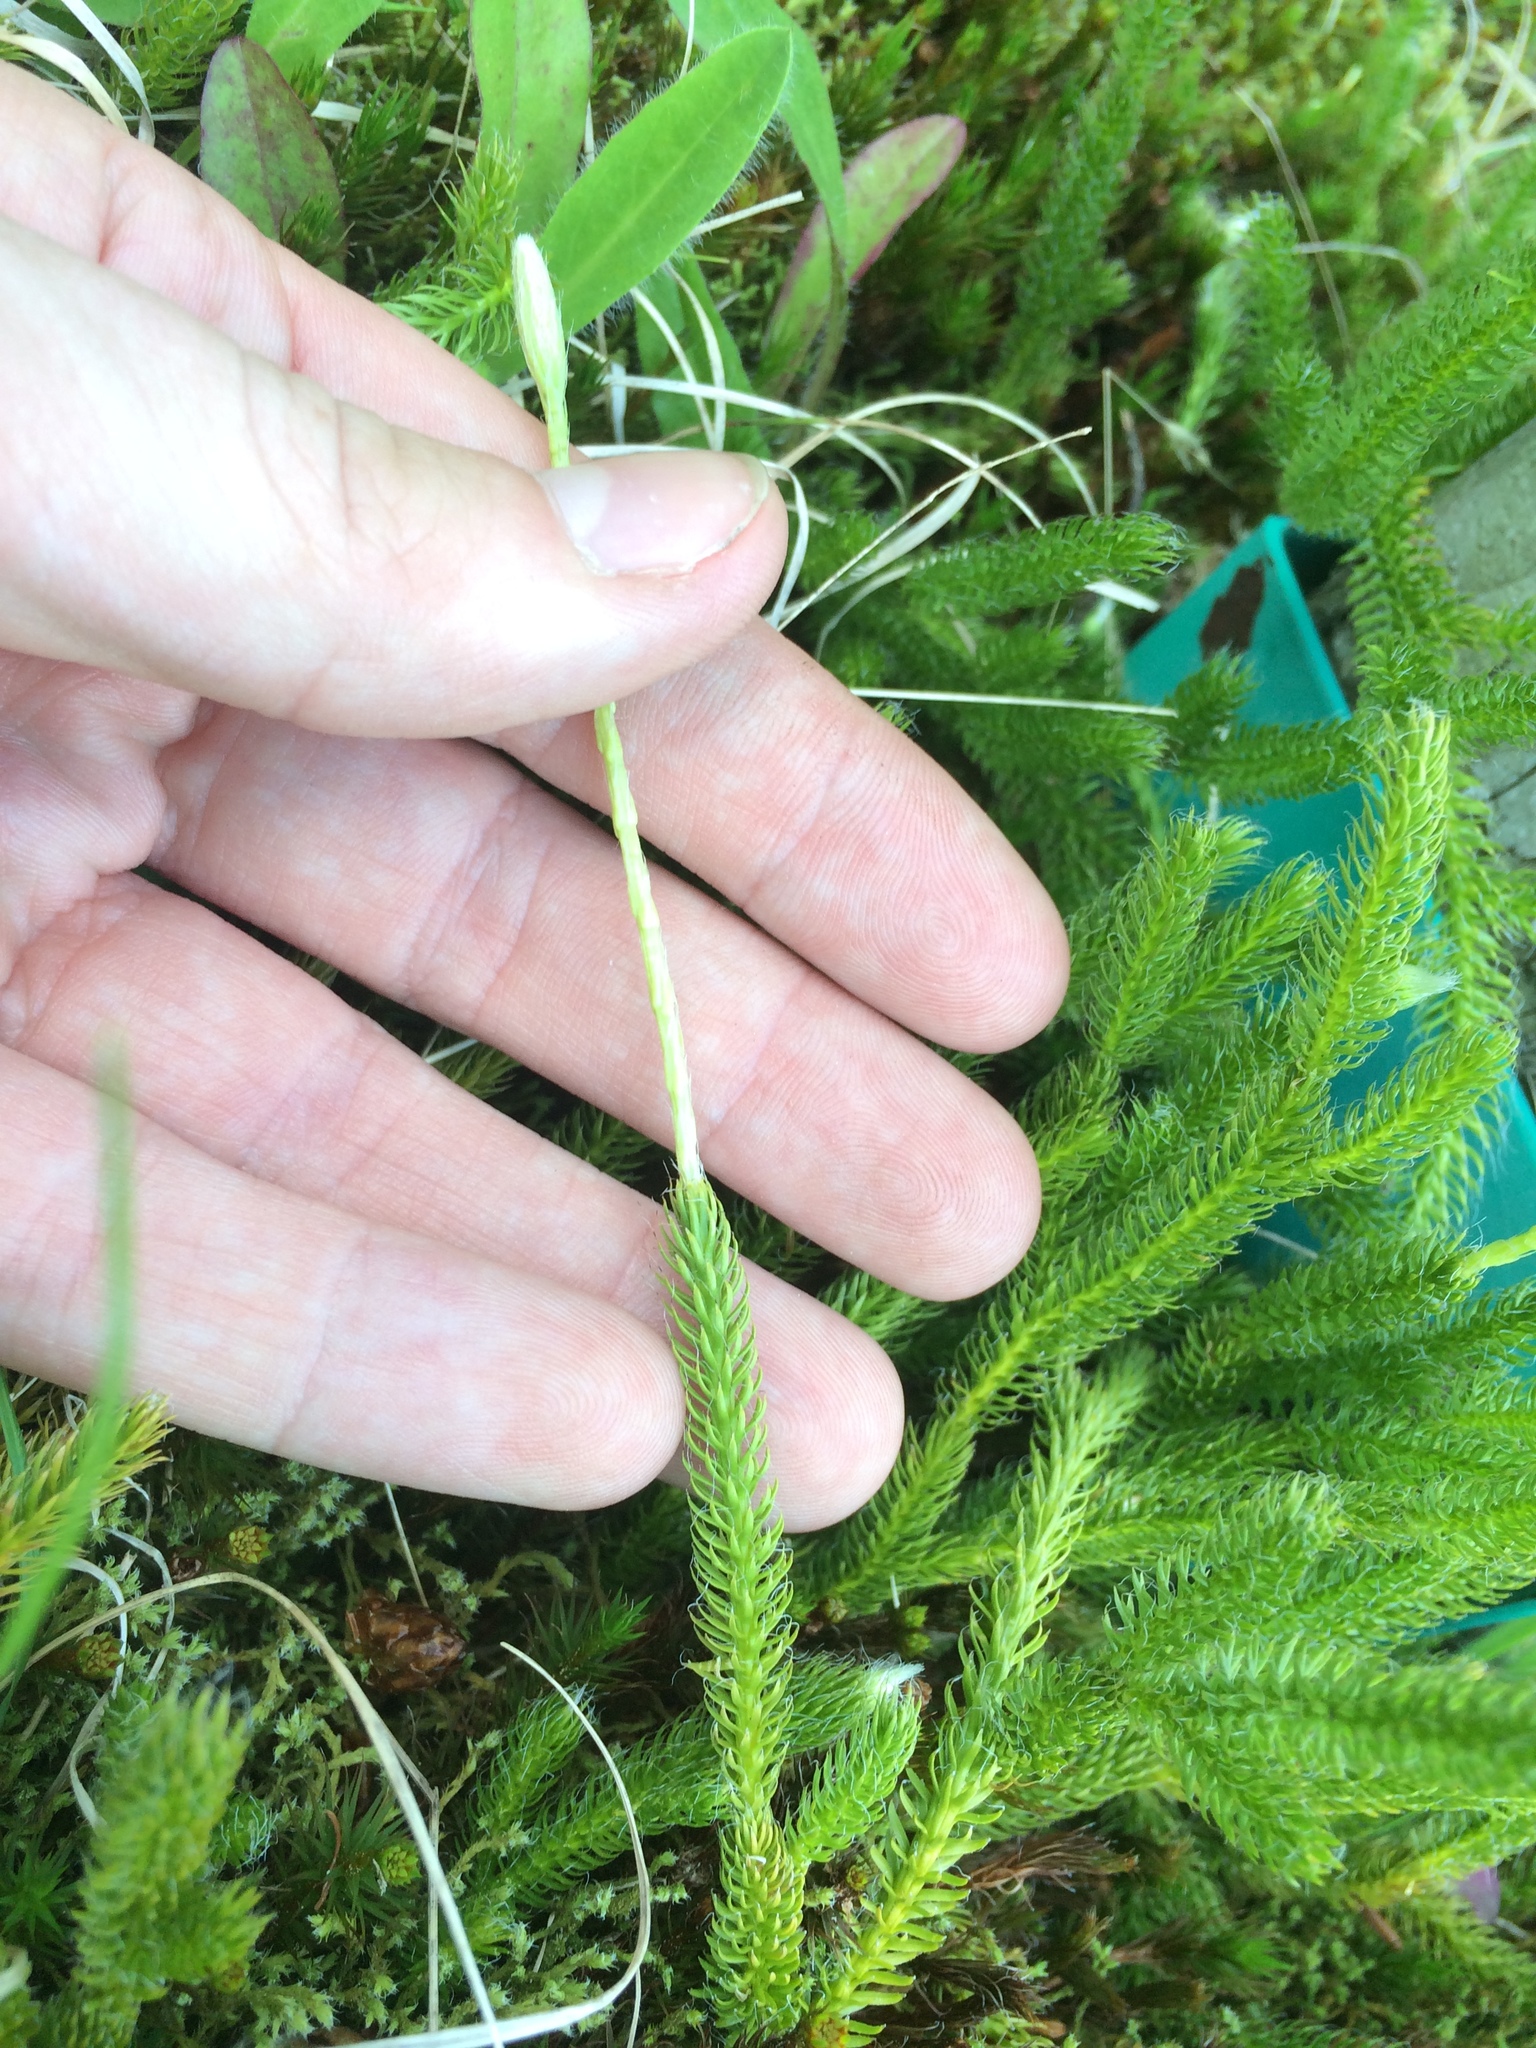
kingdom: Plantae
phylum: Tracheophyta
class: Lycopodiopsida
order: Lycopodiales
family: Lycopodiaceae
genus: Lycopodium
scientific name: Lycopodium lagopus
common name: One-cone clubmoss
